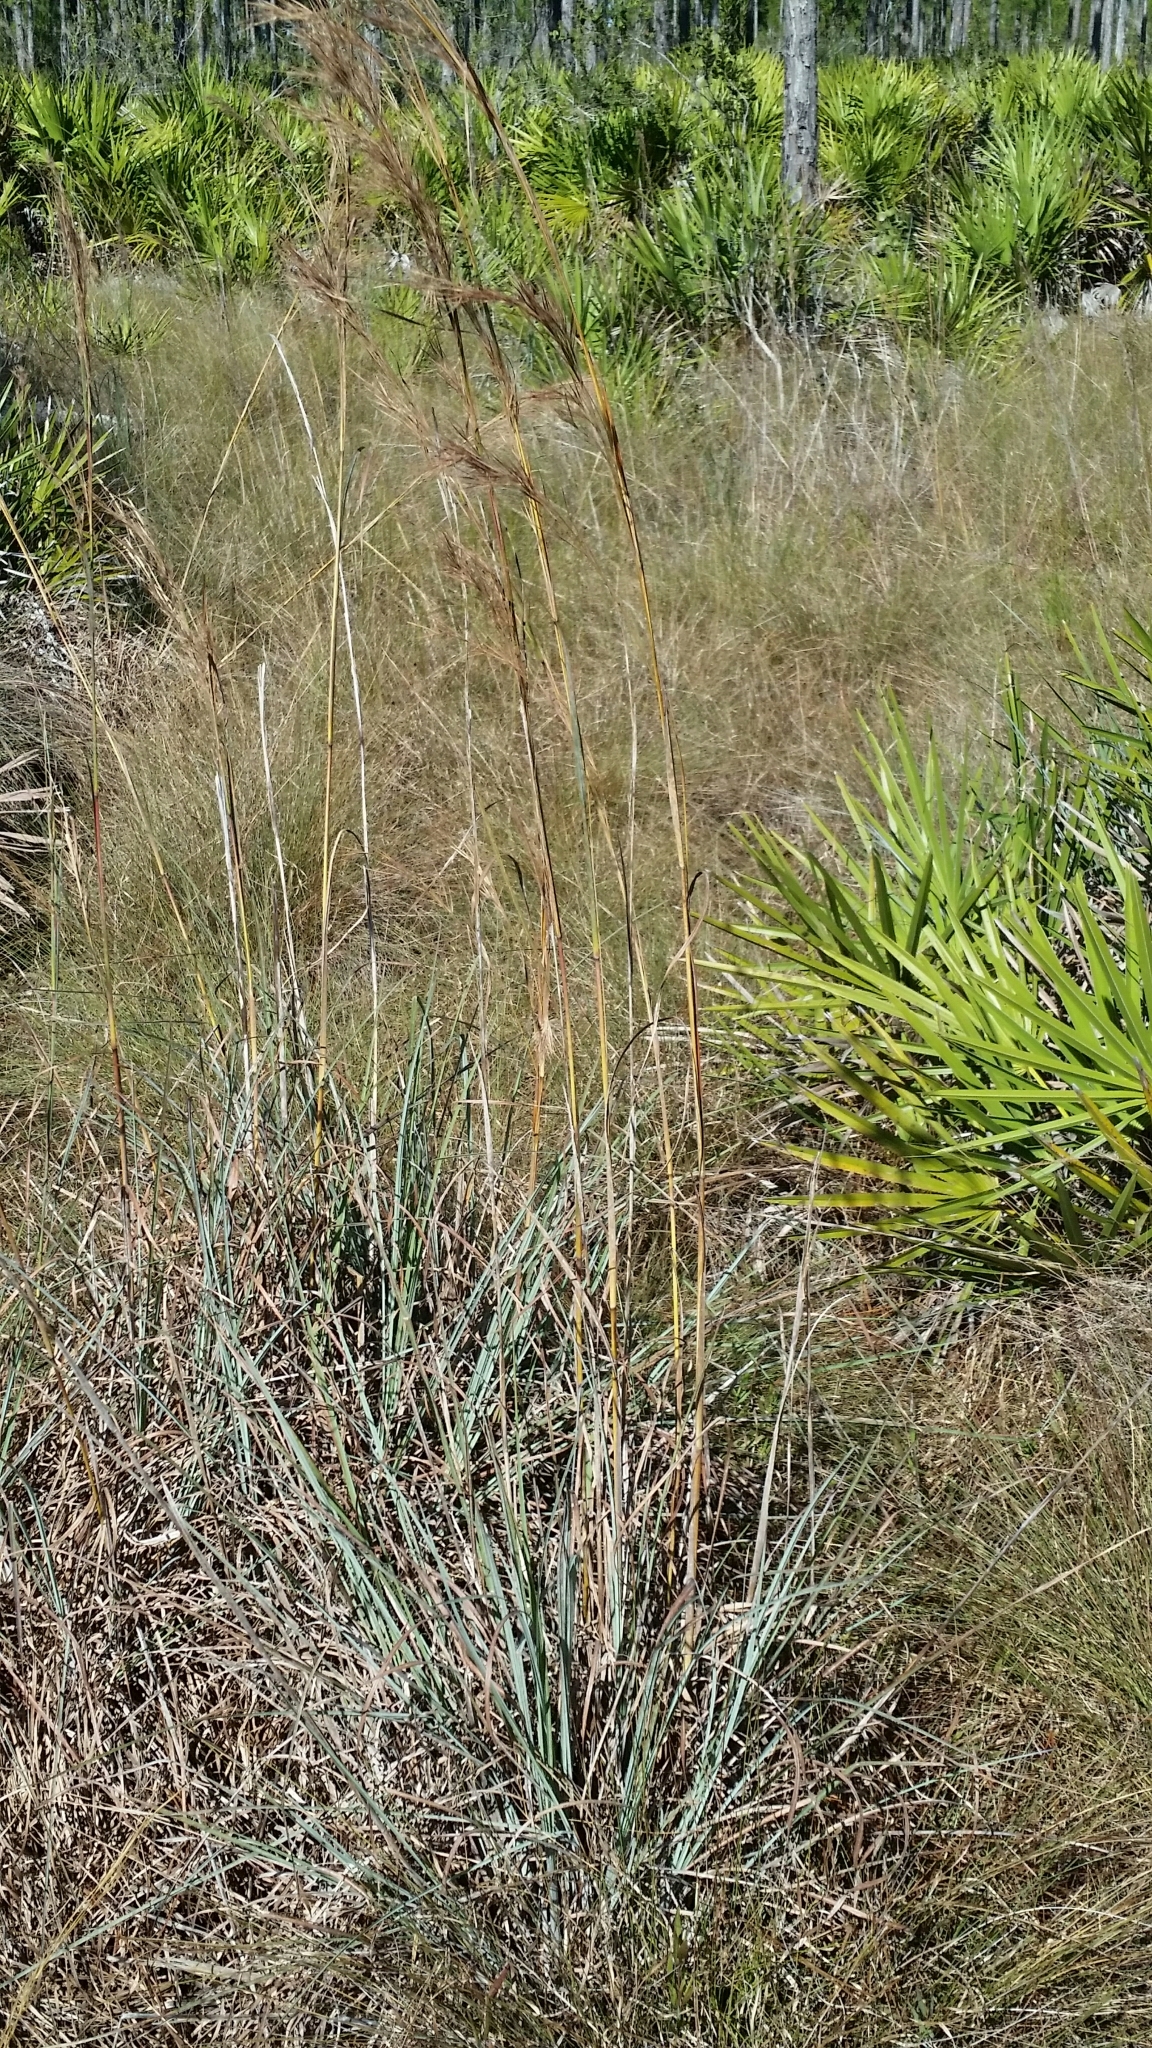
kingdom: Plantae
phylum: Tracheophyta
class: Liliopsida
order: Poales
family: Poaceae
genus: Andropogon
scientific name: Andropogon cretaceus
